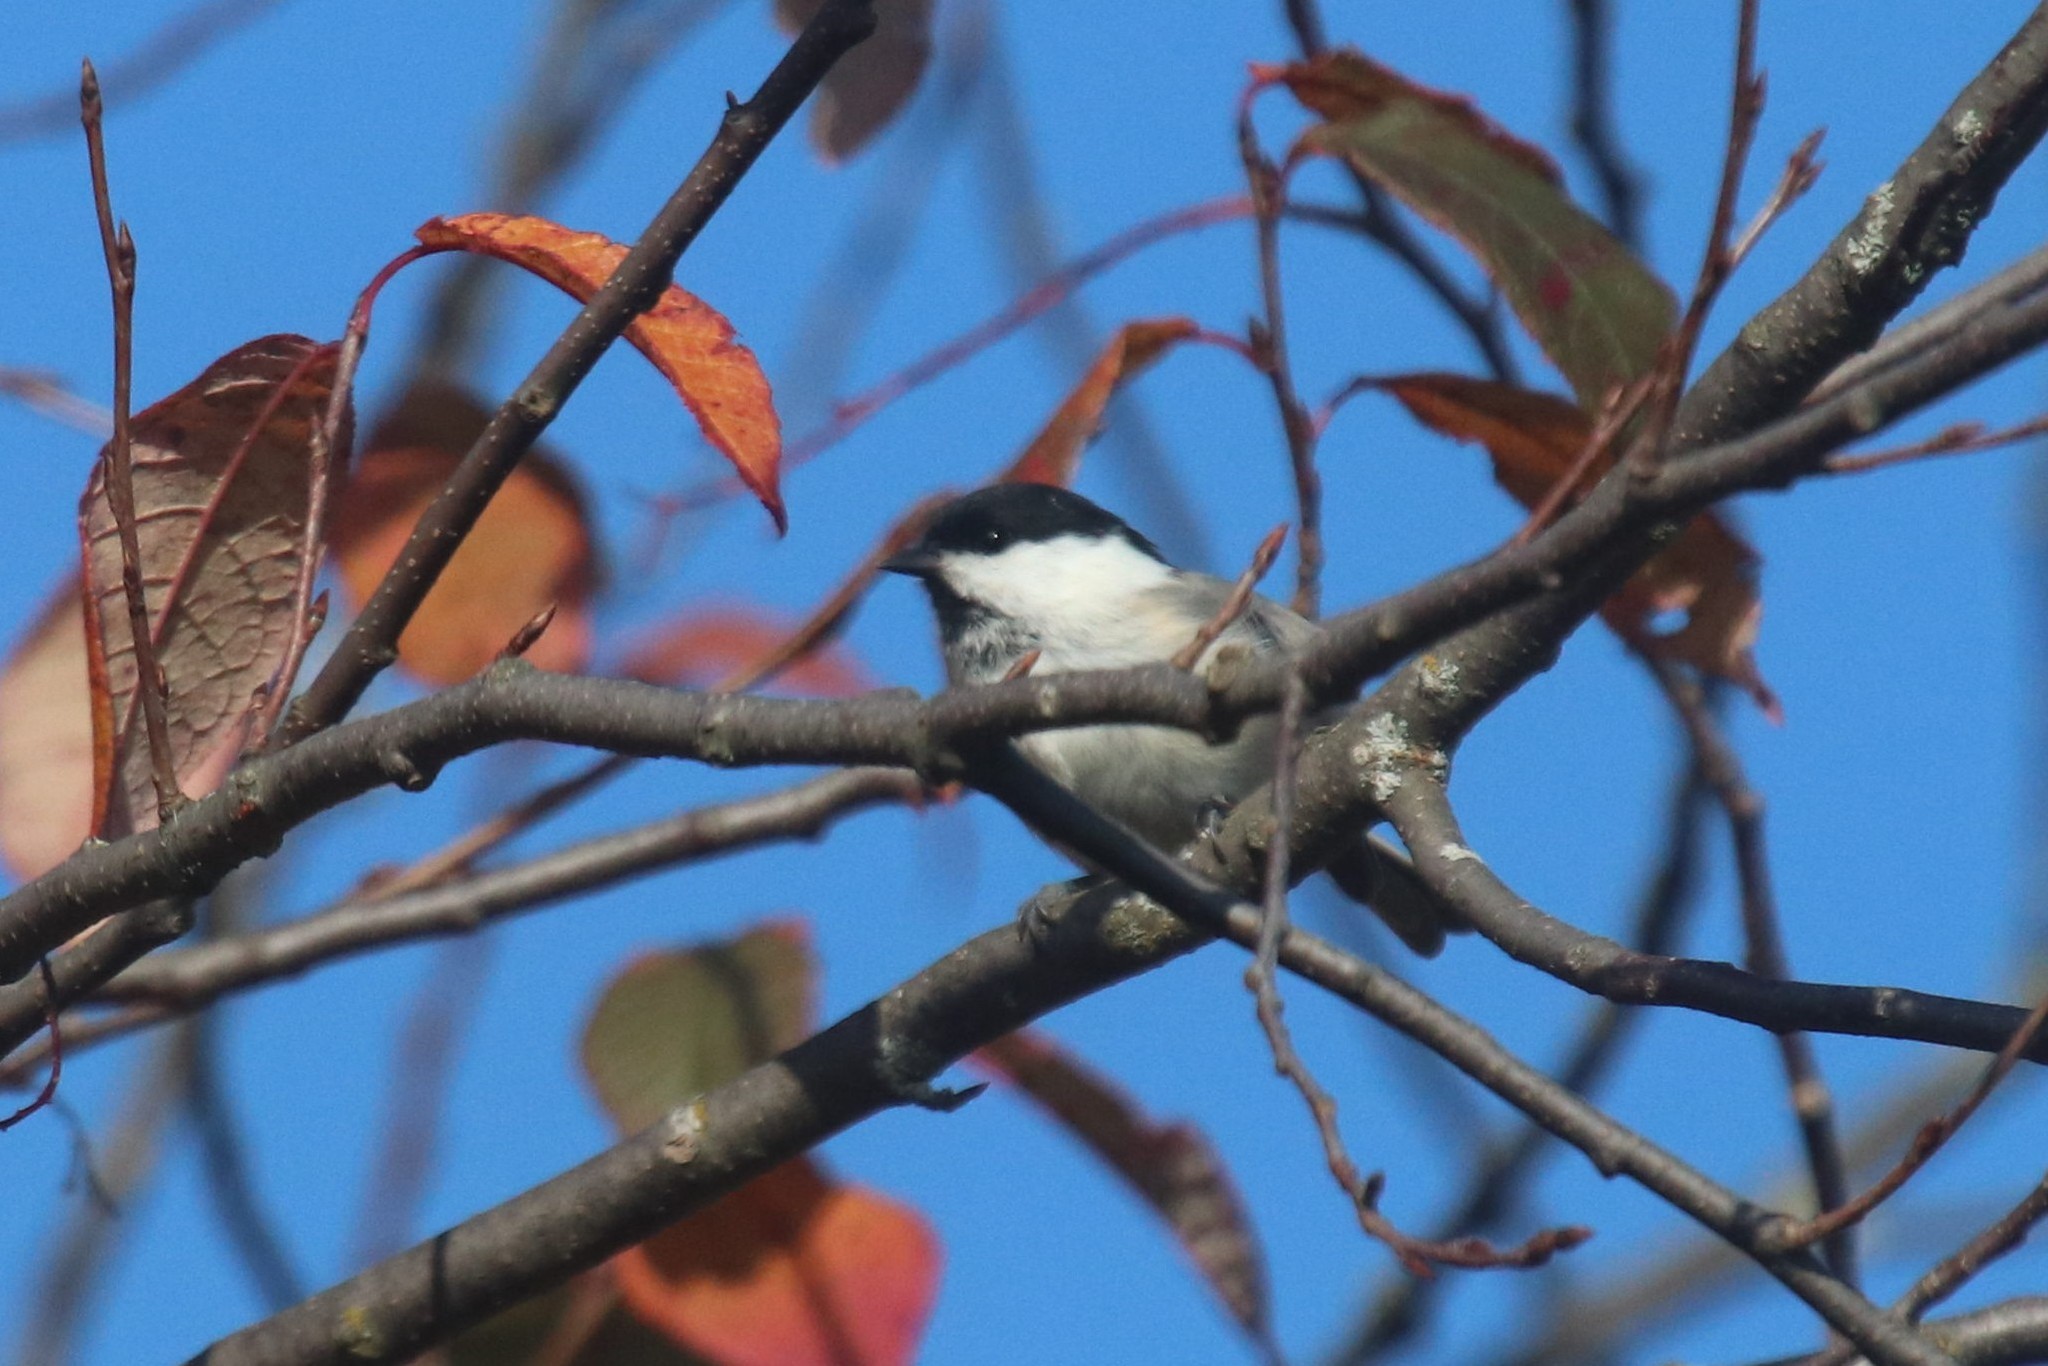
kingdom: Animalia
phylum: Chordata
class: Aves
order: Passeriformes
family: Paridae
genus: Poecile
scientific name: Poecile montanus
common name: Willow tit
